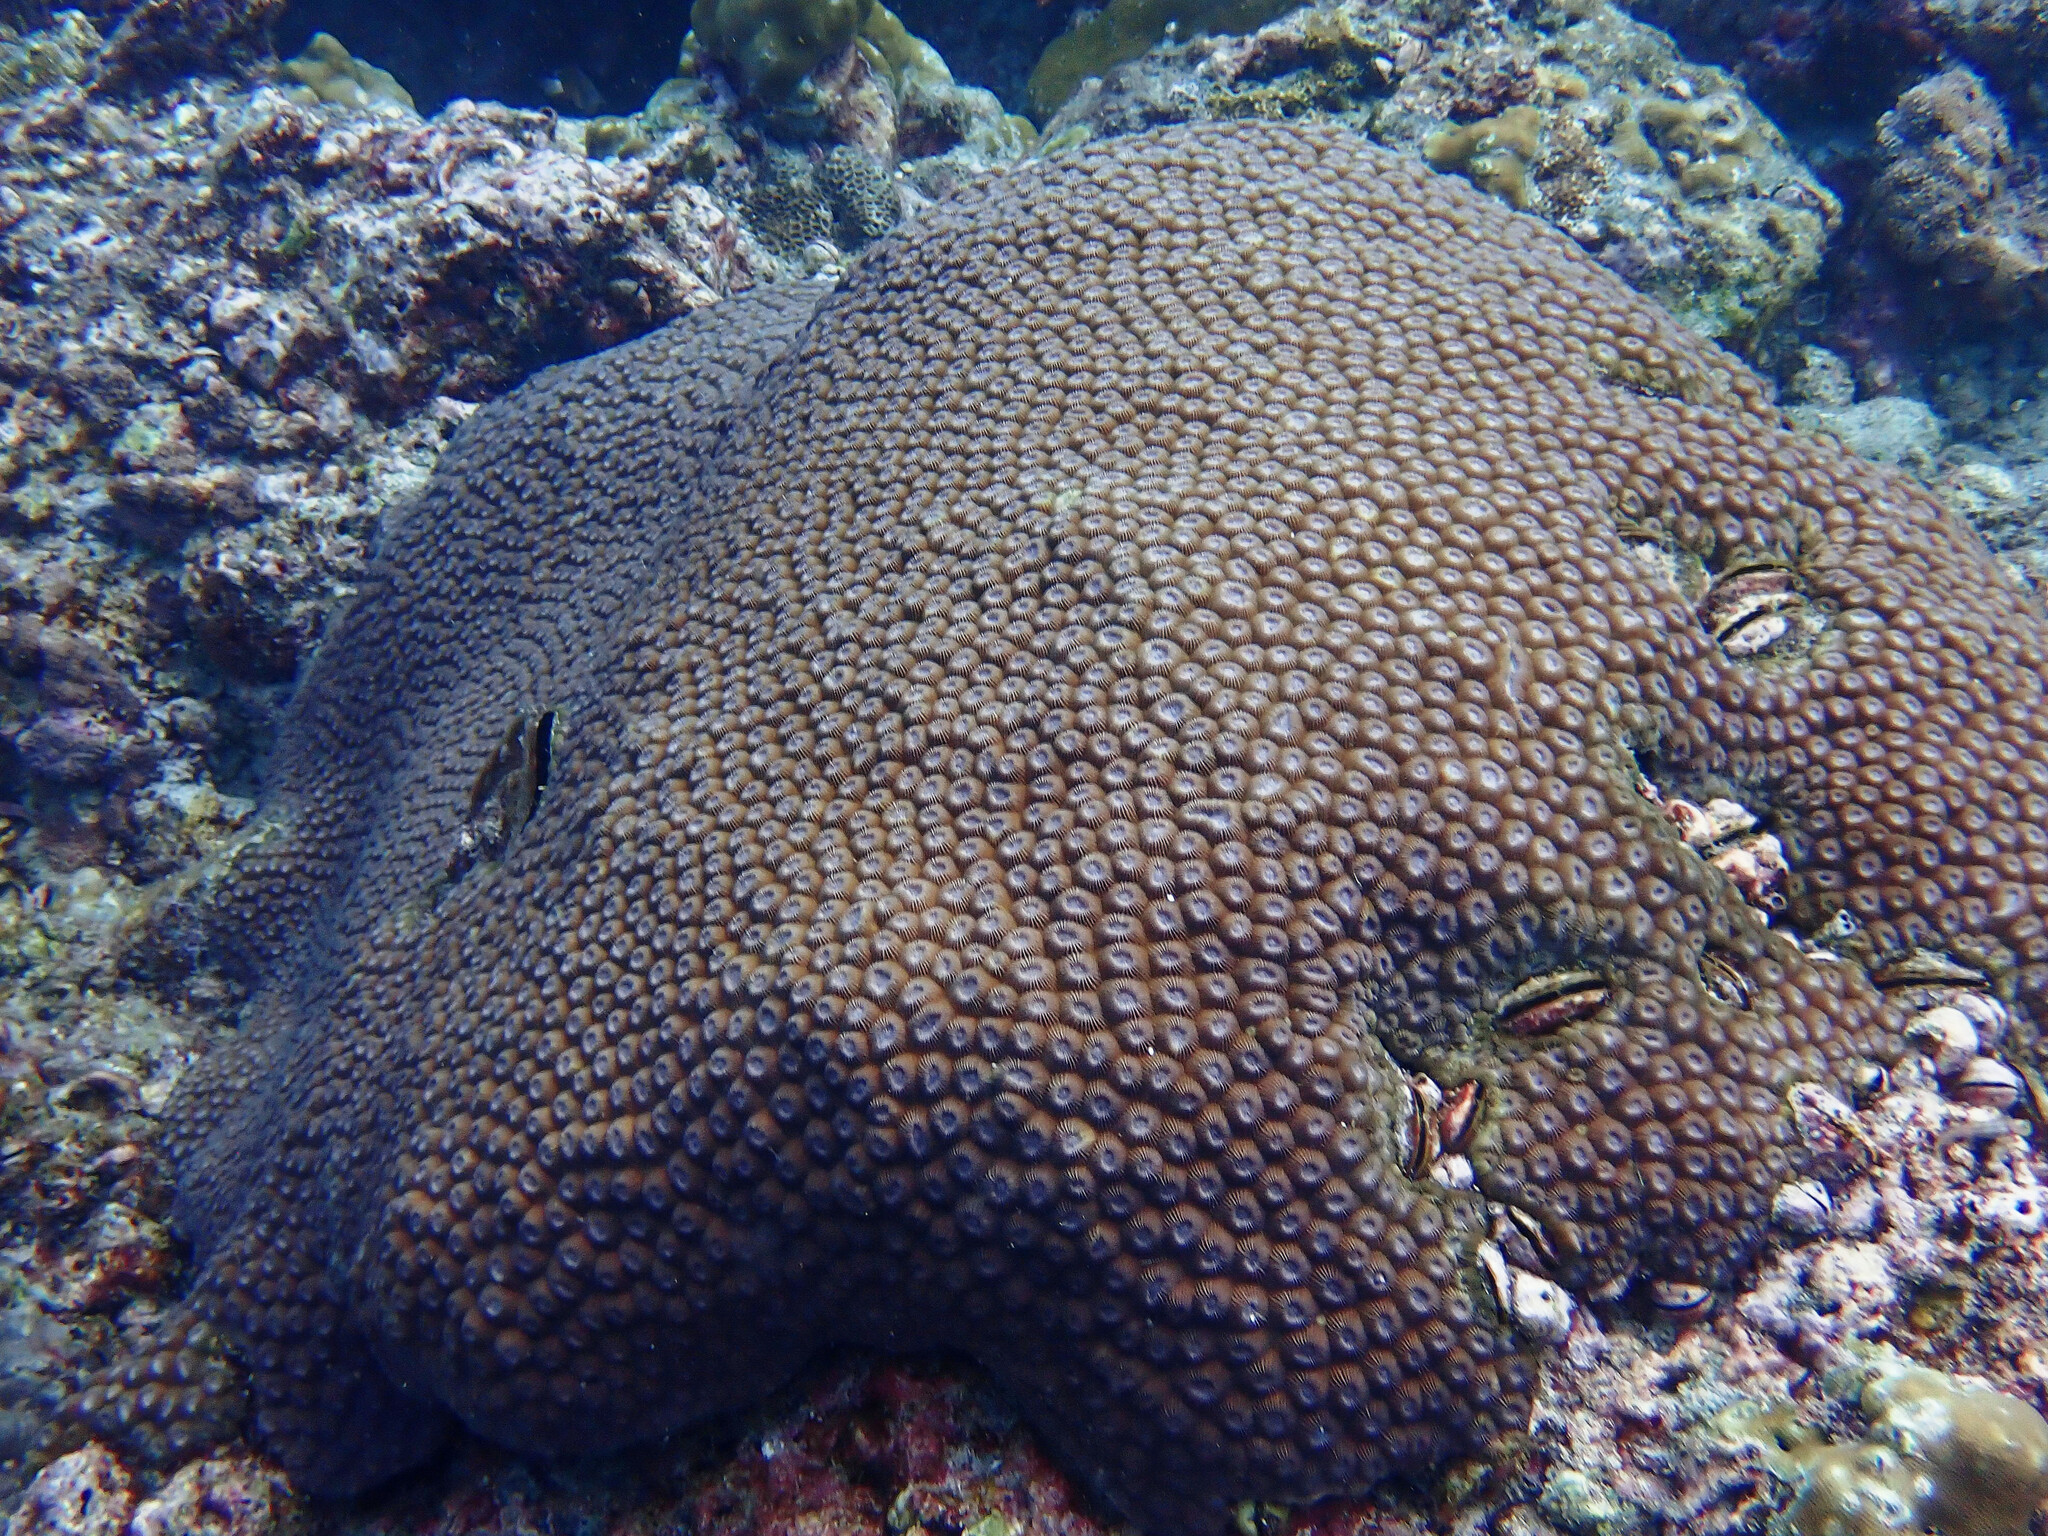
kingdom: Animalia
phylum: Cnidaria
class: Anthozoa
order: Scleractinia
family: Diploastraeidae
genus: Diploastrea
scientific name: Diploastrea heliopora
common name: Double-star coral
